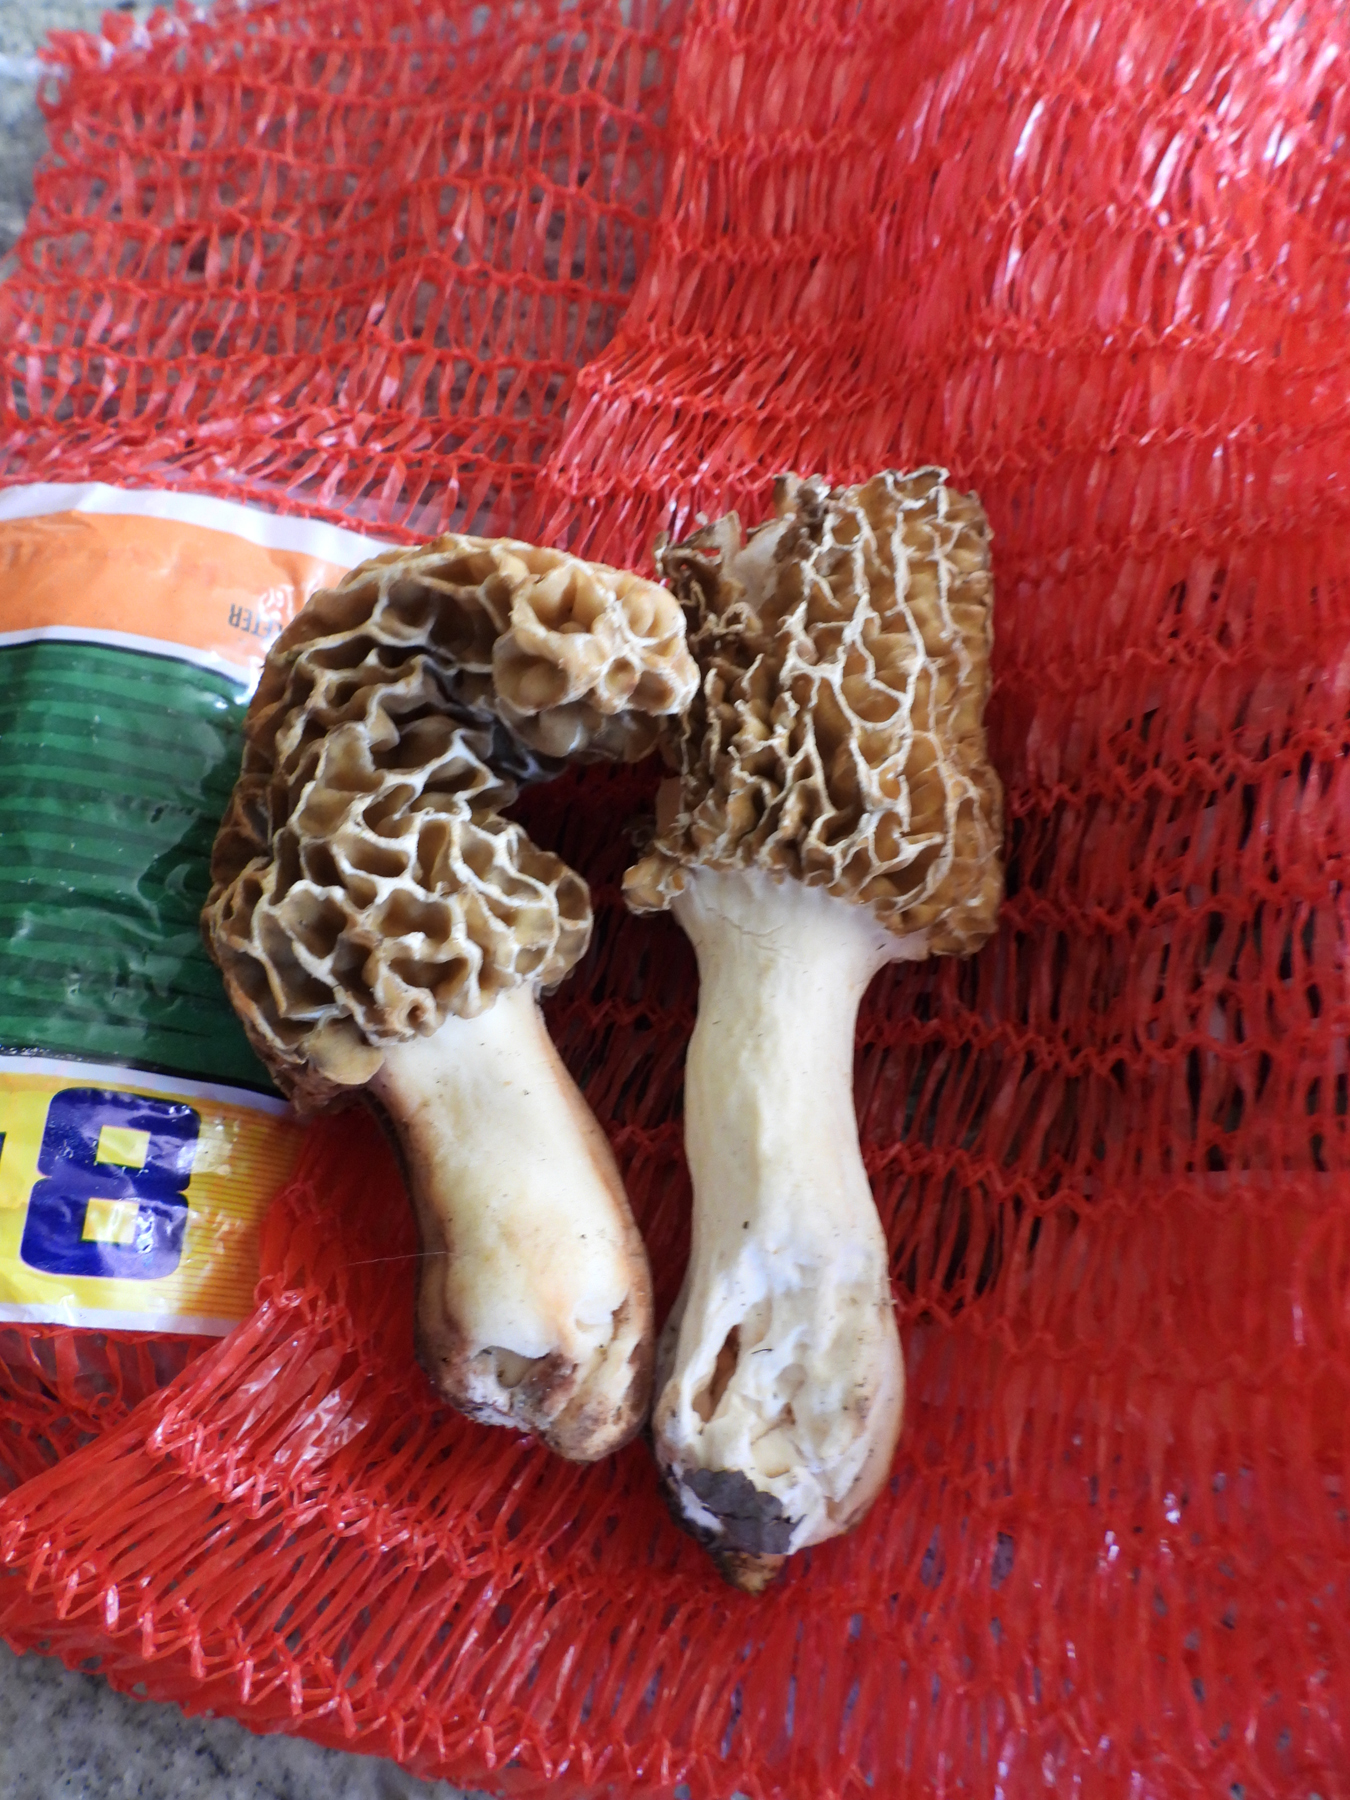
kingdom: Fungi
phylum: Ascomycota
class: Pezizomycetes
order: Pezizales
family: Morchellaceae
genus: Morchella
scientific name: Morchella americana
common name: White morel
